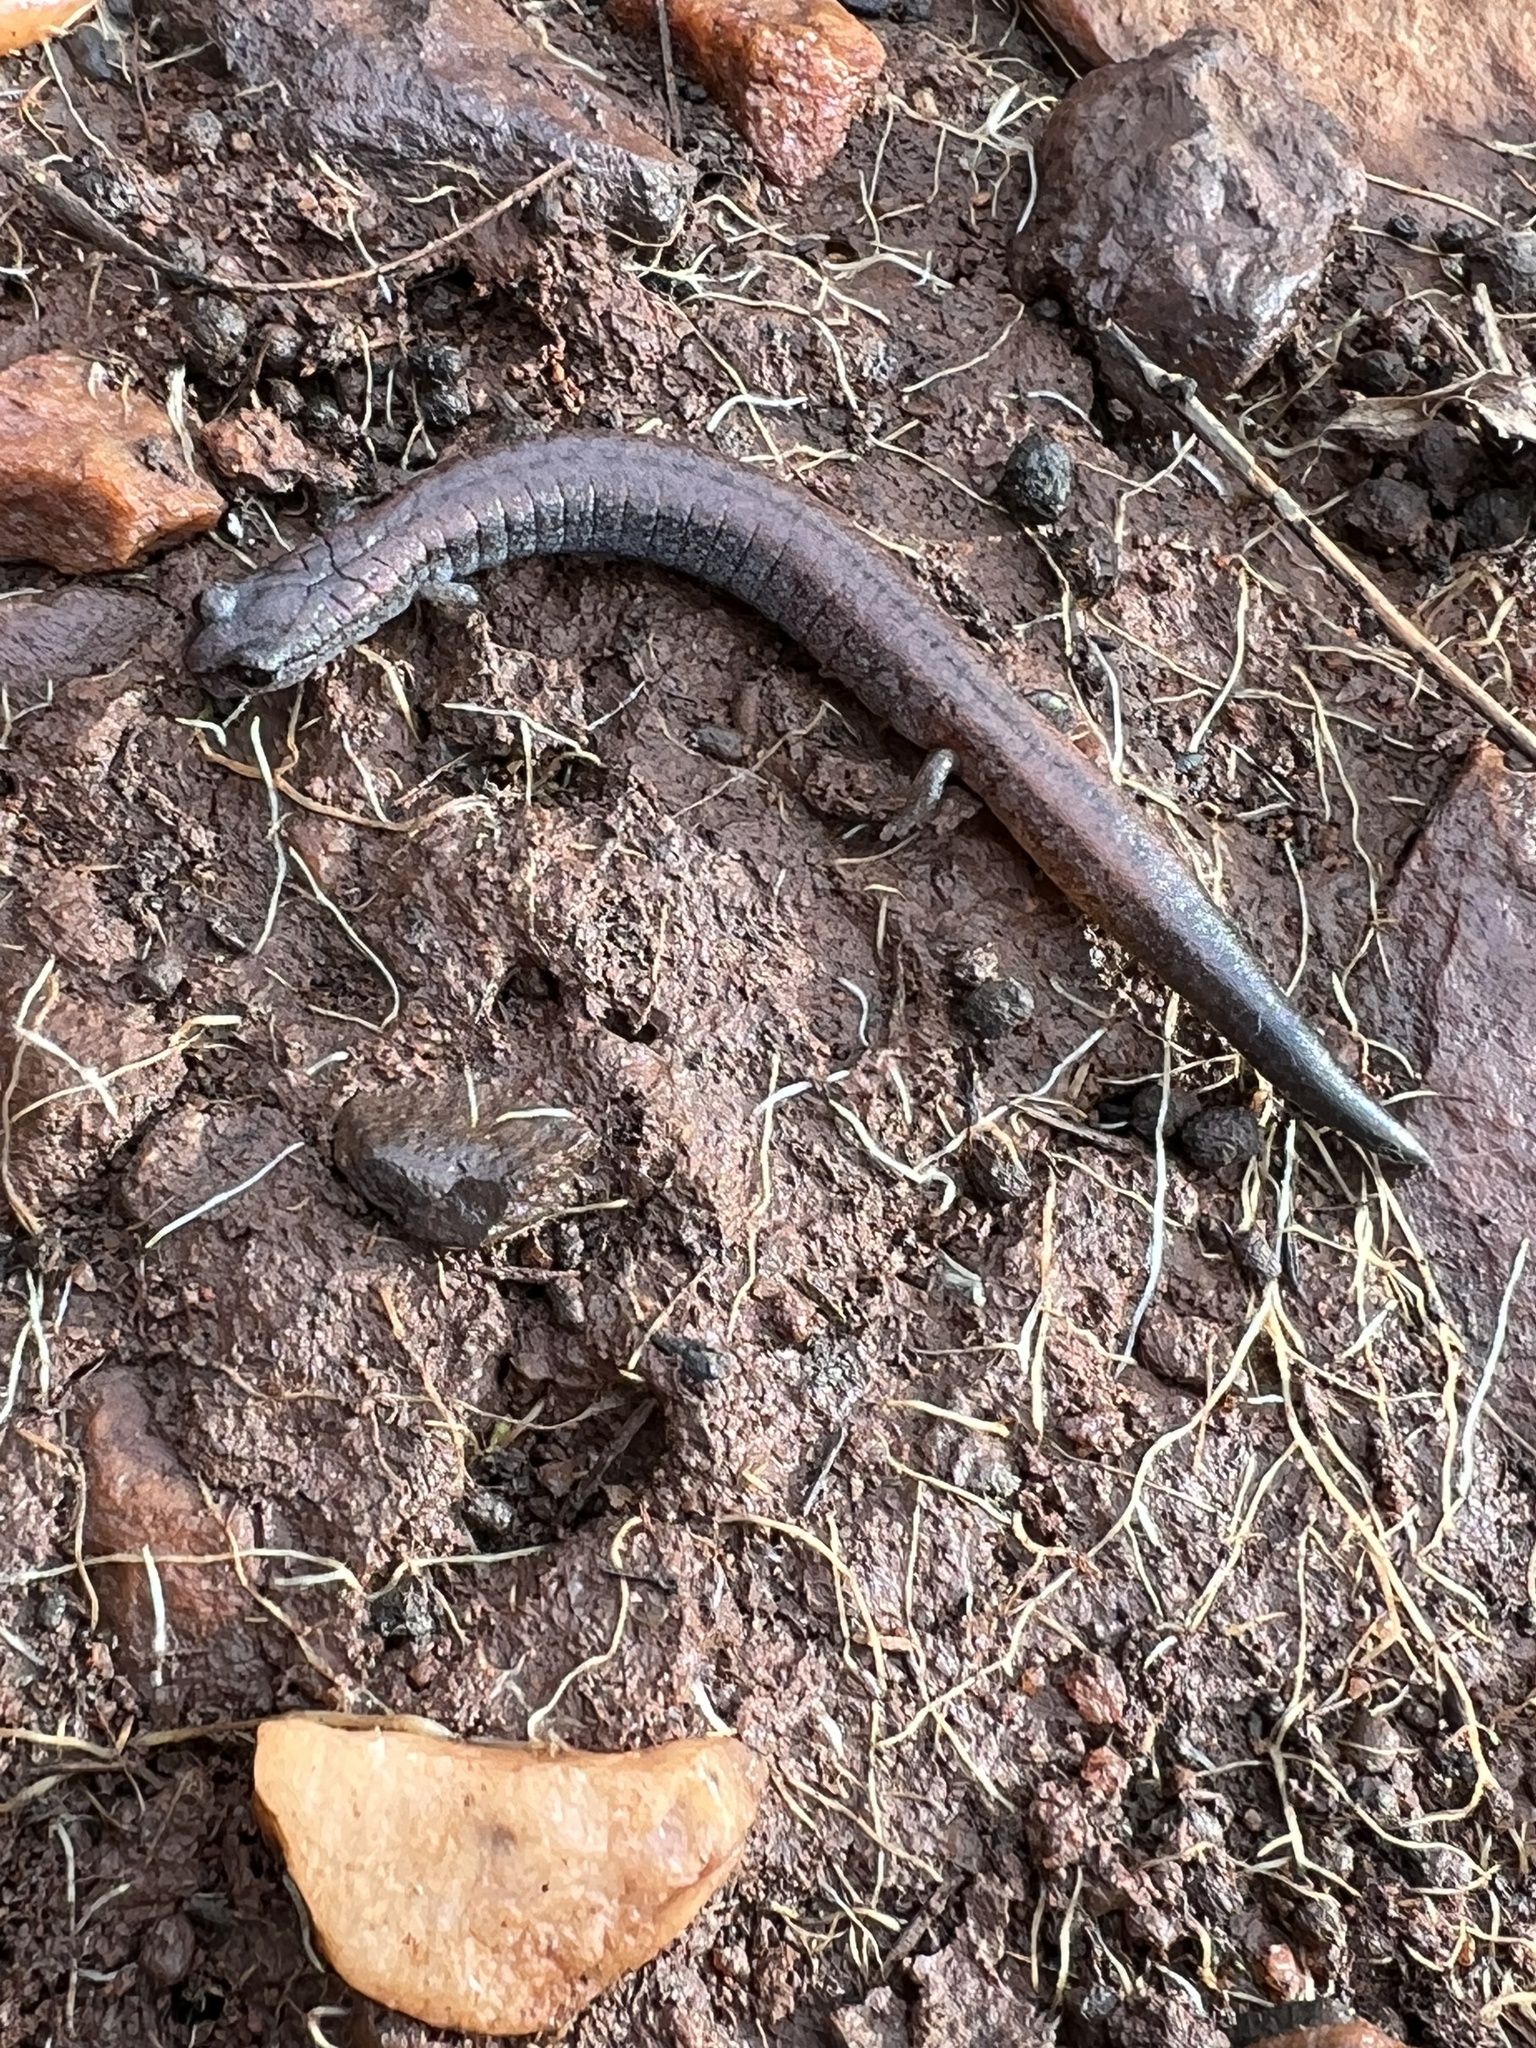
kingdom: Animalia
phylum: Chordata
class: Amphibia
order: Caudata
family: Plethodontidae
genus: Batrachoseps
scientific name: Batrachoseps major
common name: Garden slender salamander
